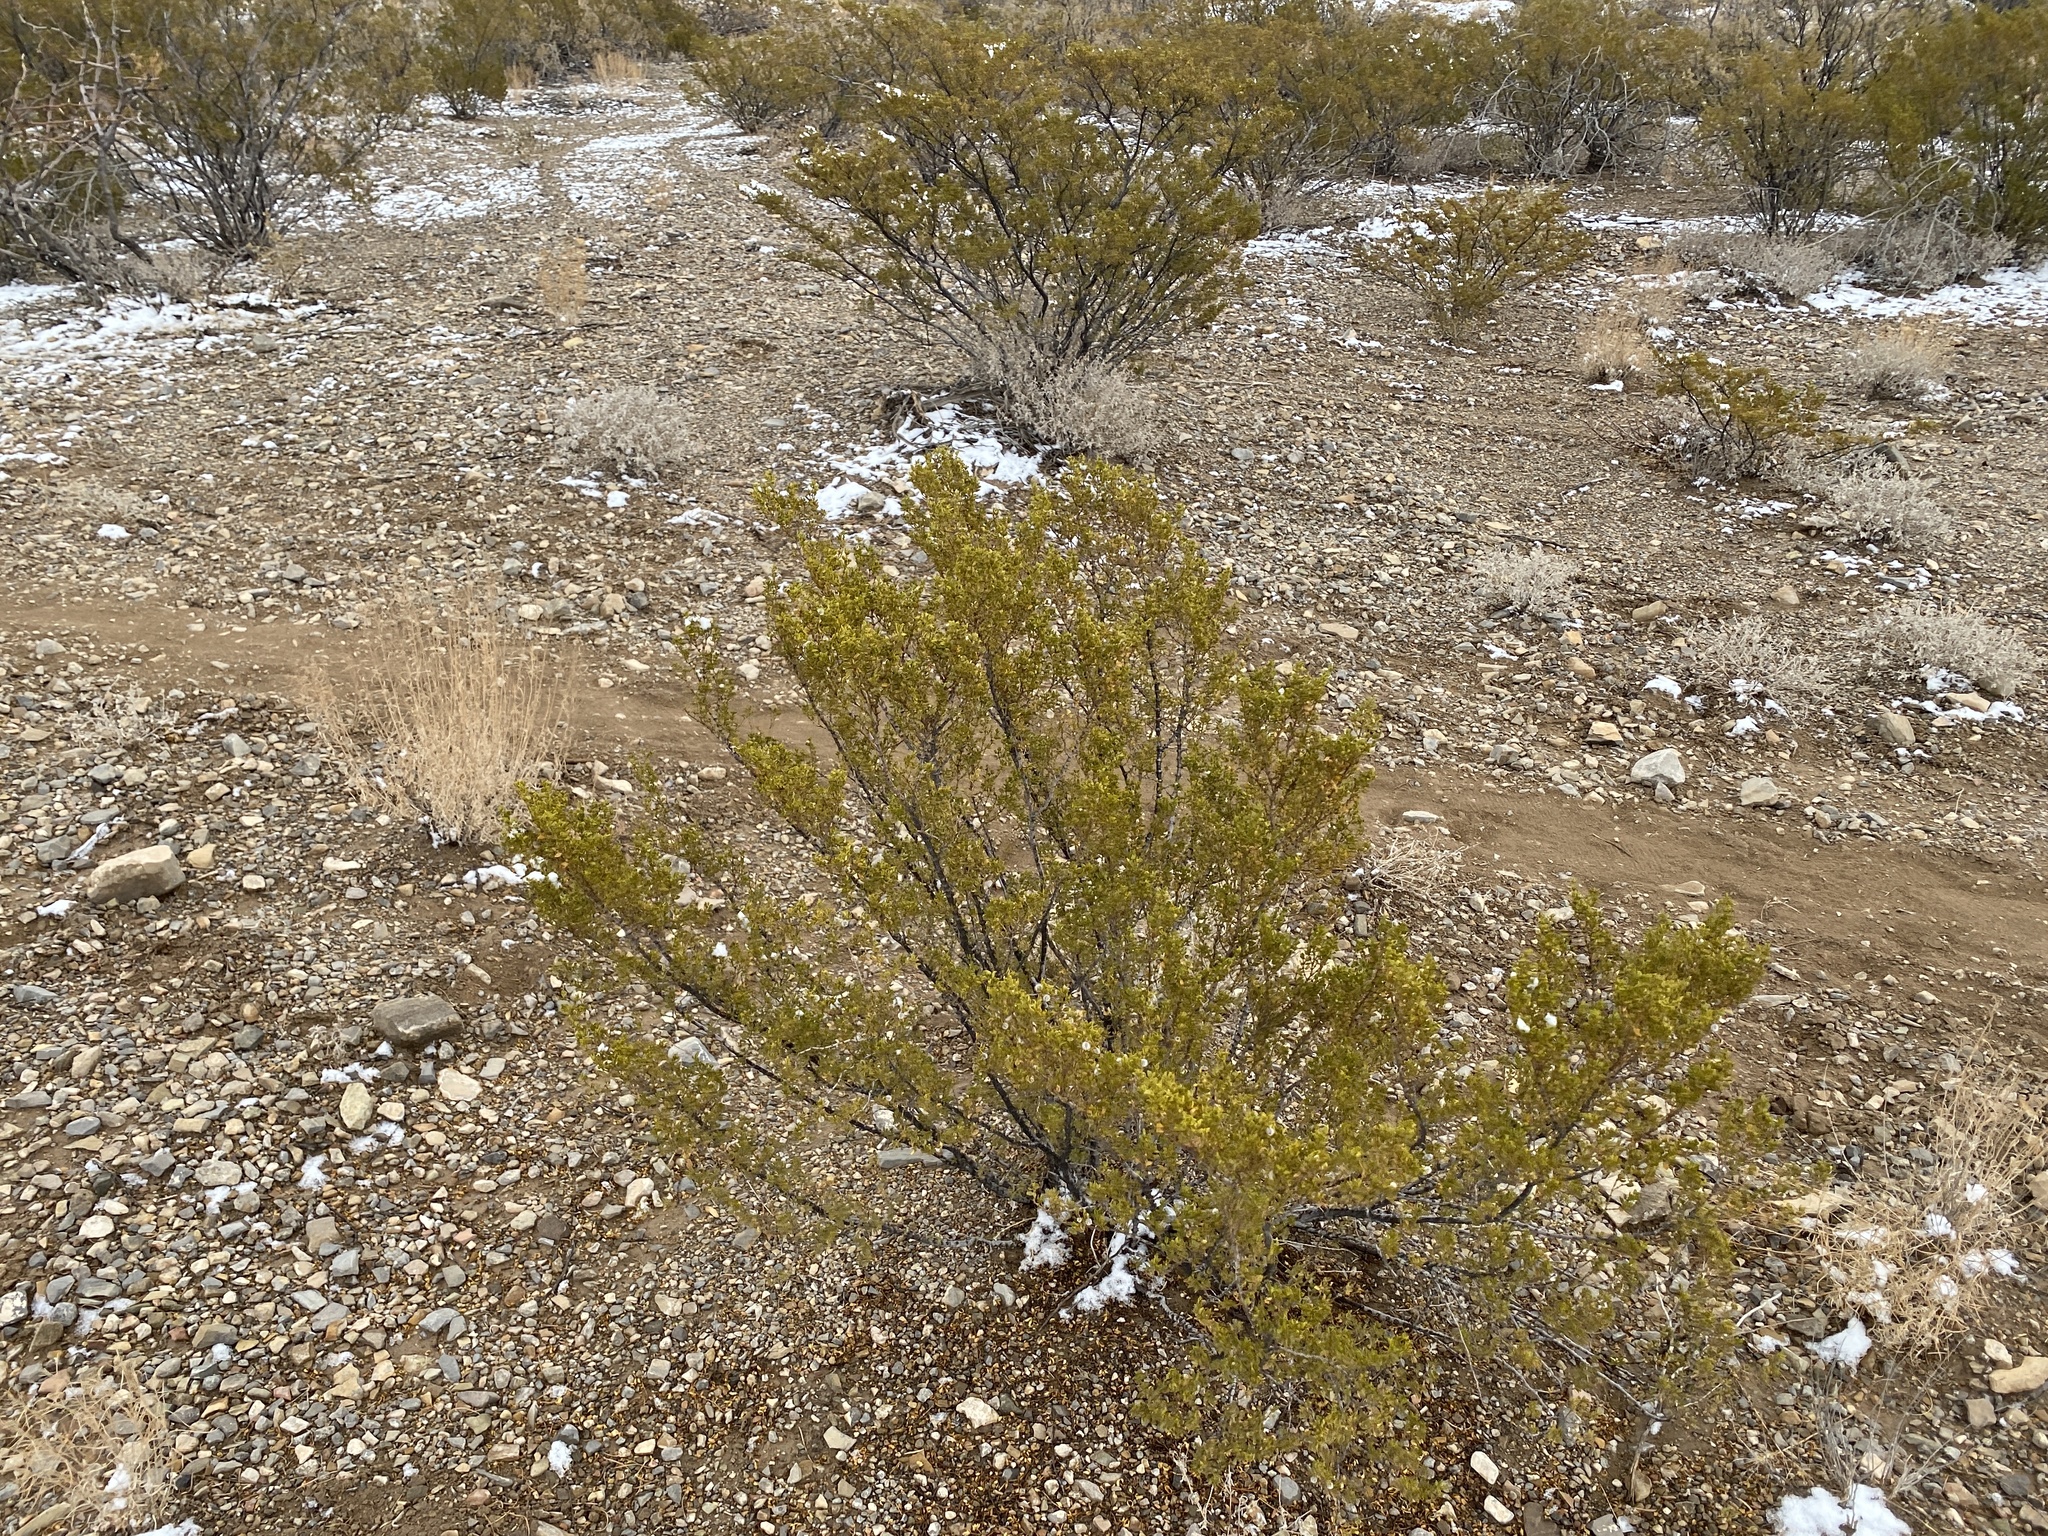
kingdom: Plantae
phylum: Tracheophyta
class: Magnoliopsida
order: Zygophyllales
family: Zygophyllaceae
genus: Larrea
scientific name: Larrea tridentata
